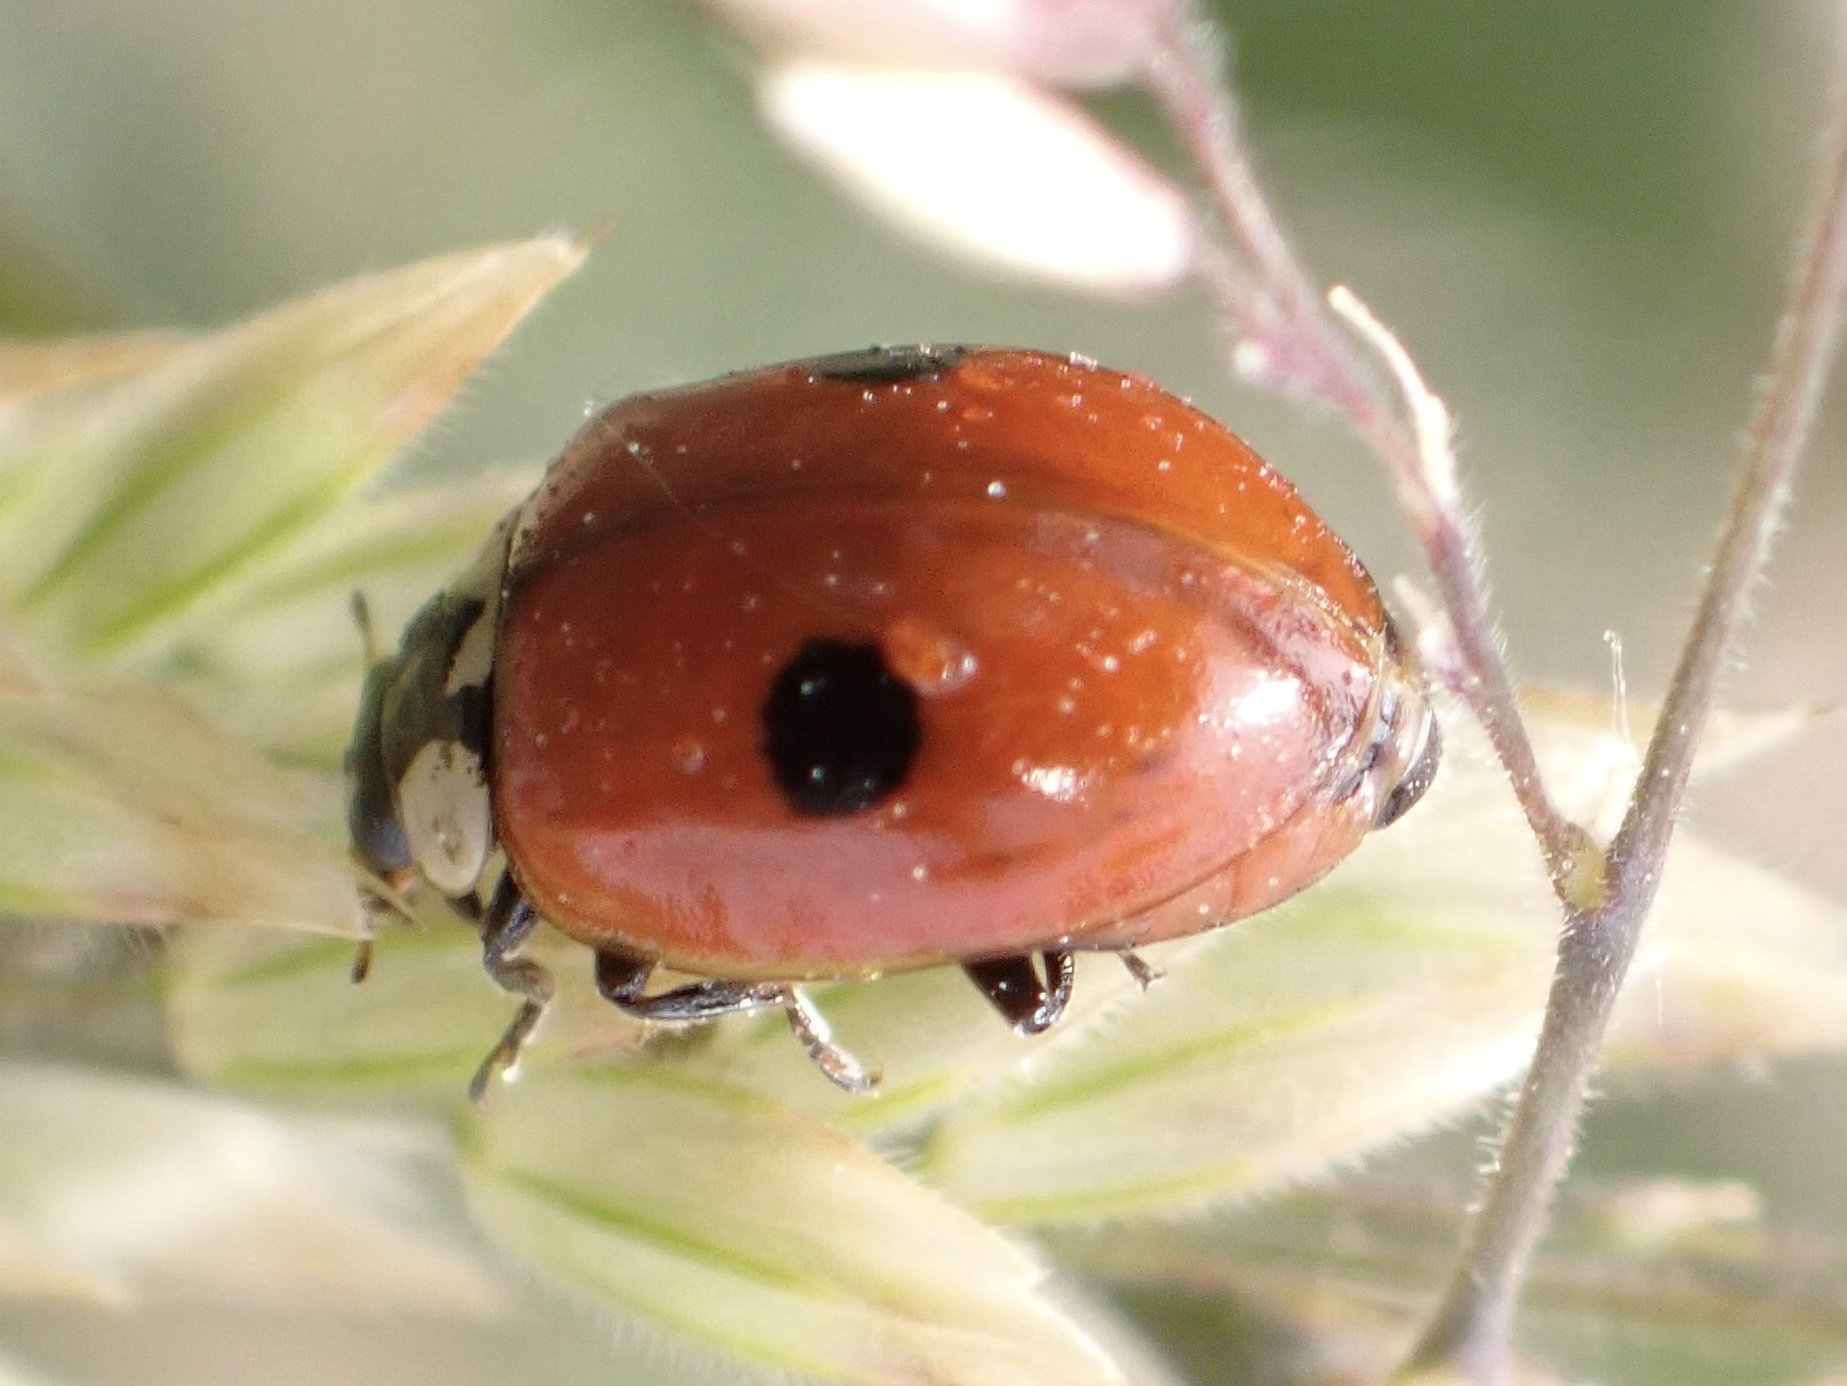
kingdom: Animalia
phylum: Arthropoda
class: Insecta
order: Coleoptera
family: Coccinellidae
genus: Adalia
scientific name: Adalia bipunctata
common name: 2-spot ladybird
